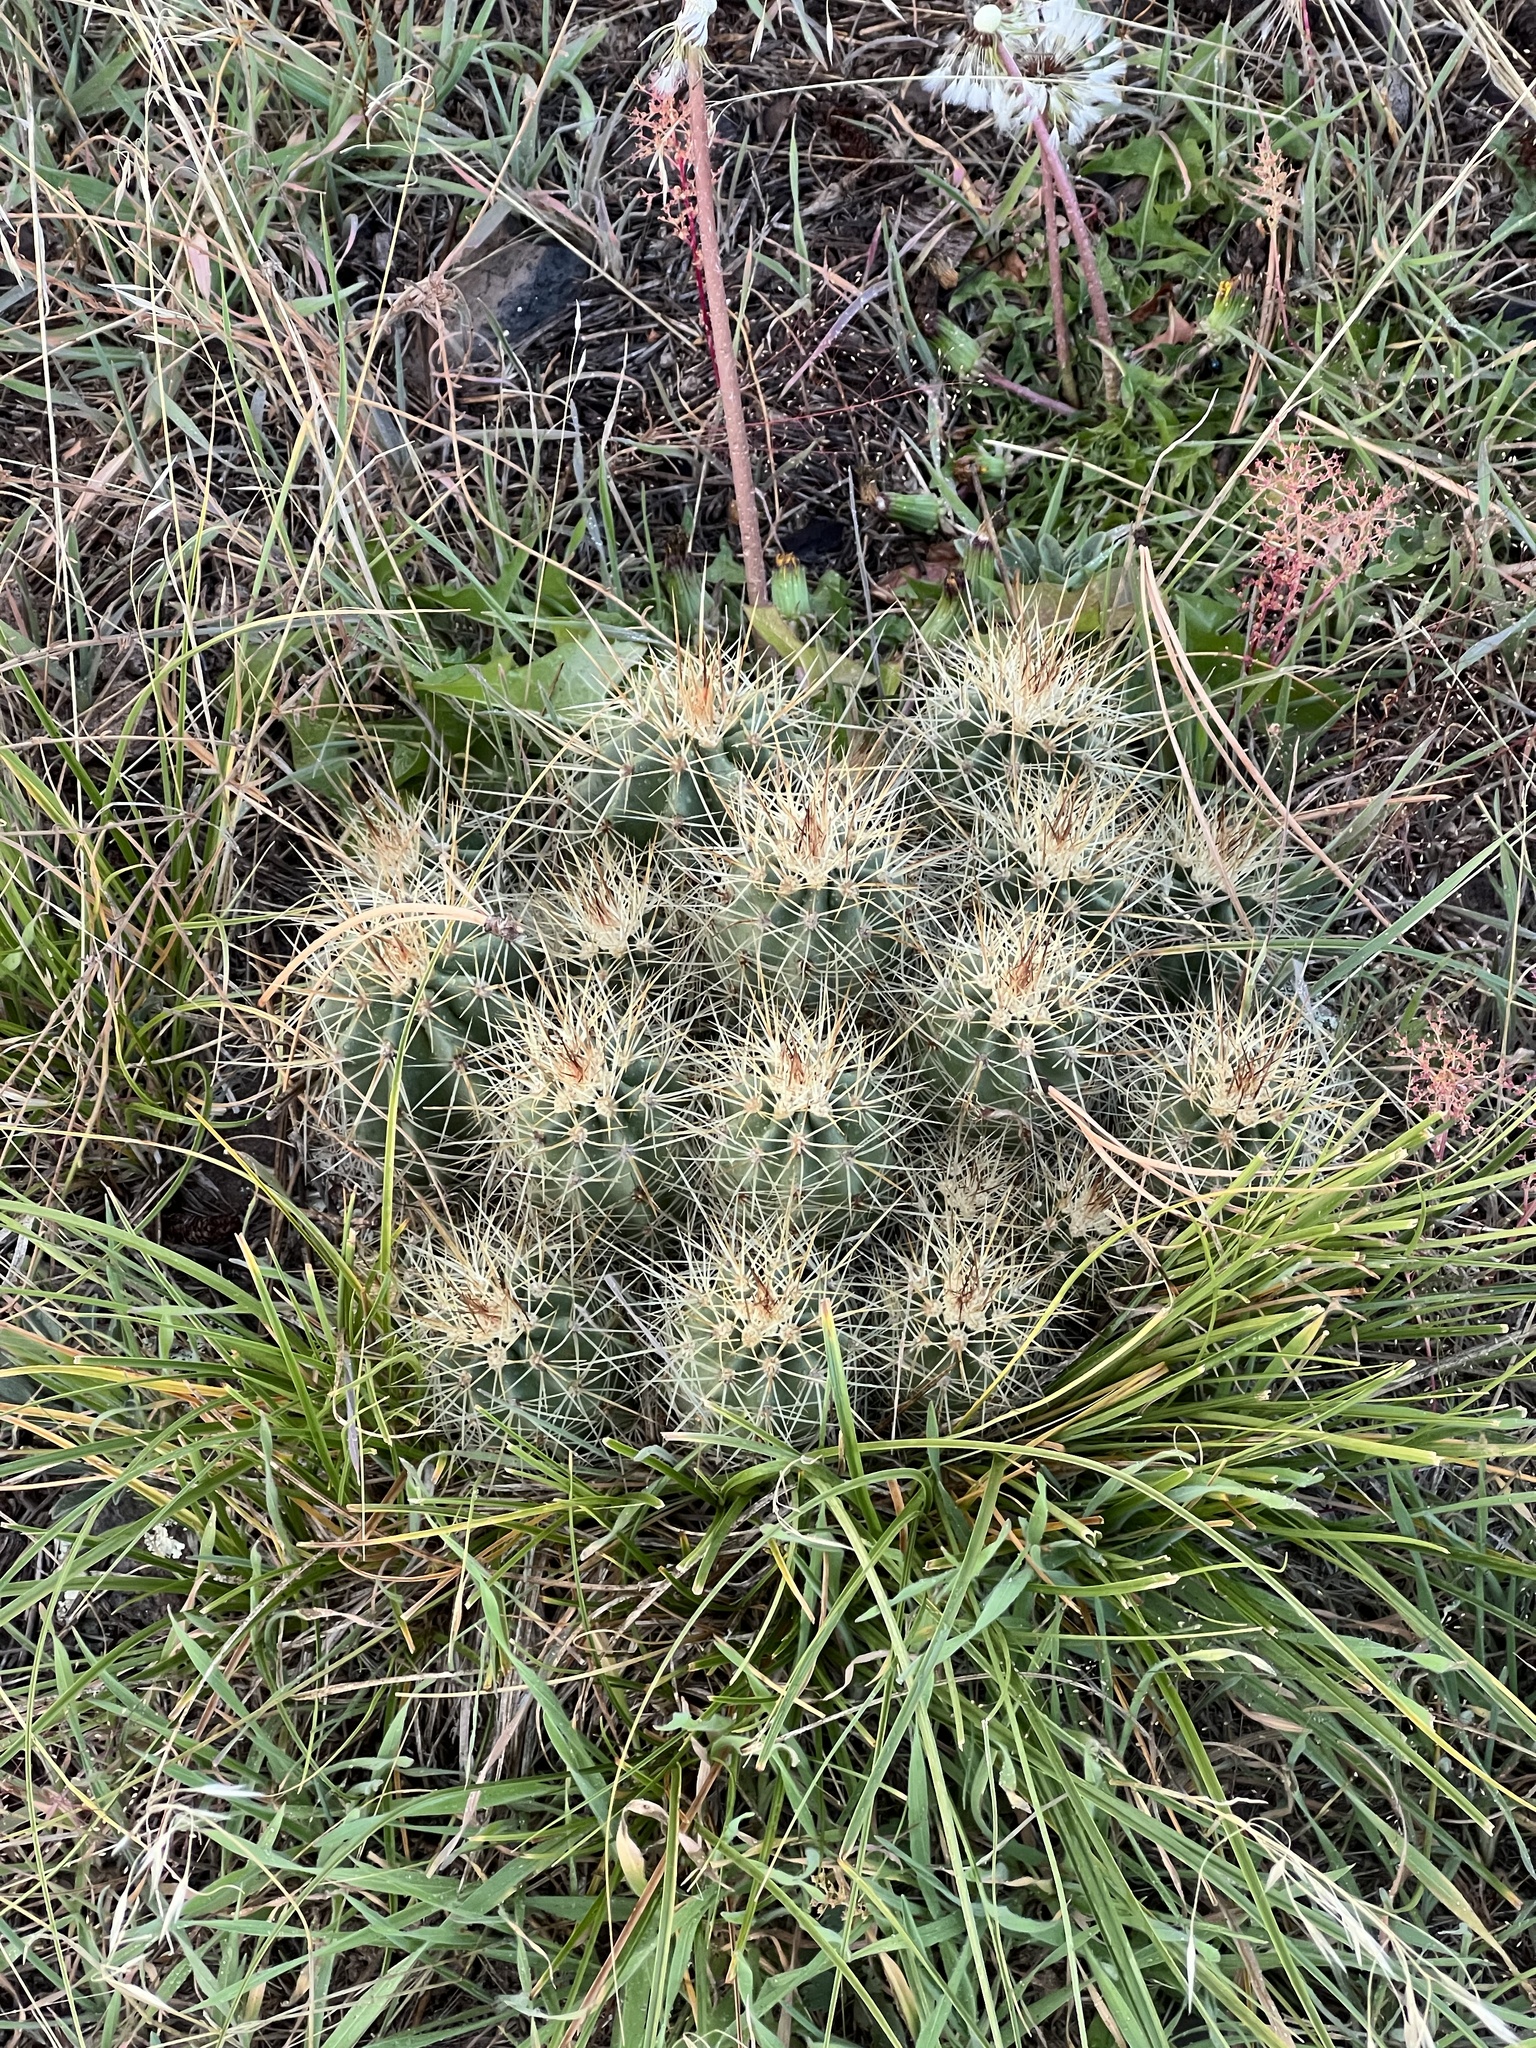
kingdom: Plantae
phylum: Tracheophyta
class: Magnoliopsida
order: Caryophyllales
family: Cactaceae
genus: Echinocereus
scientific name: Echinocereus bakeri
